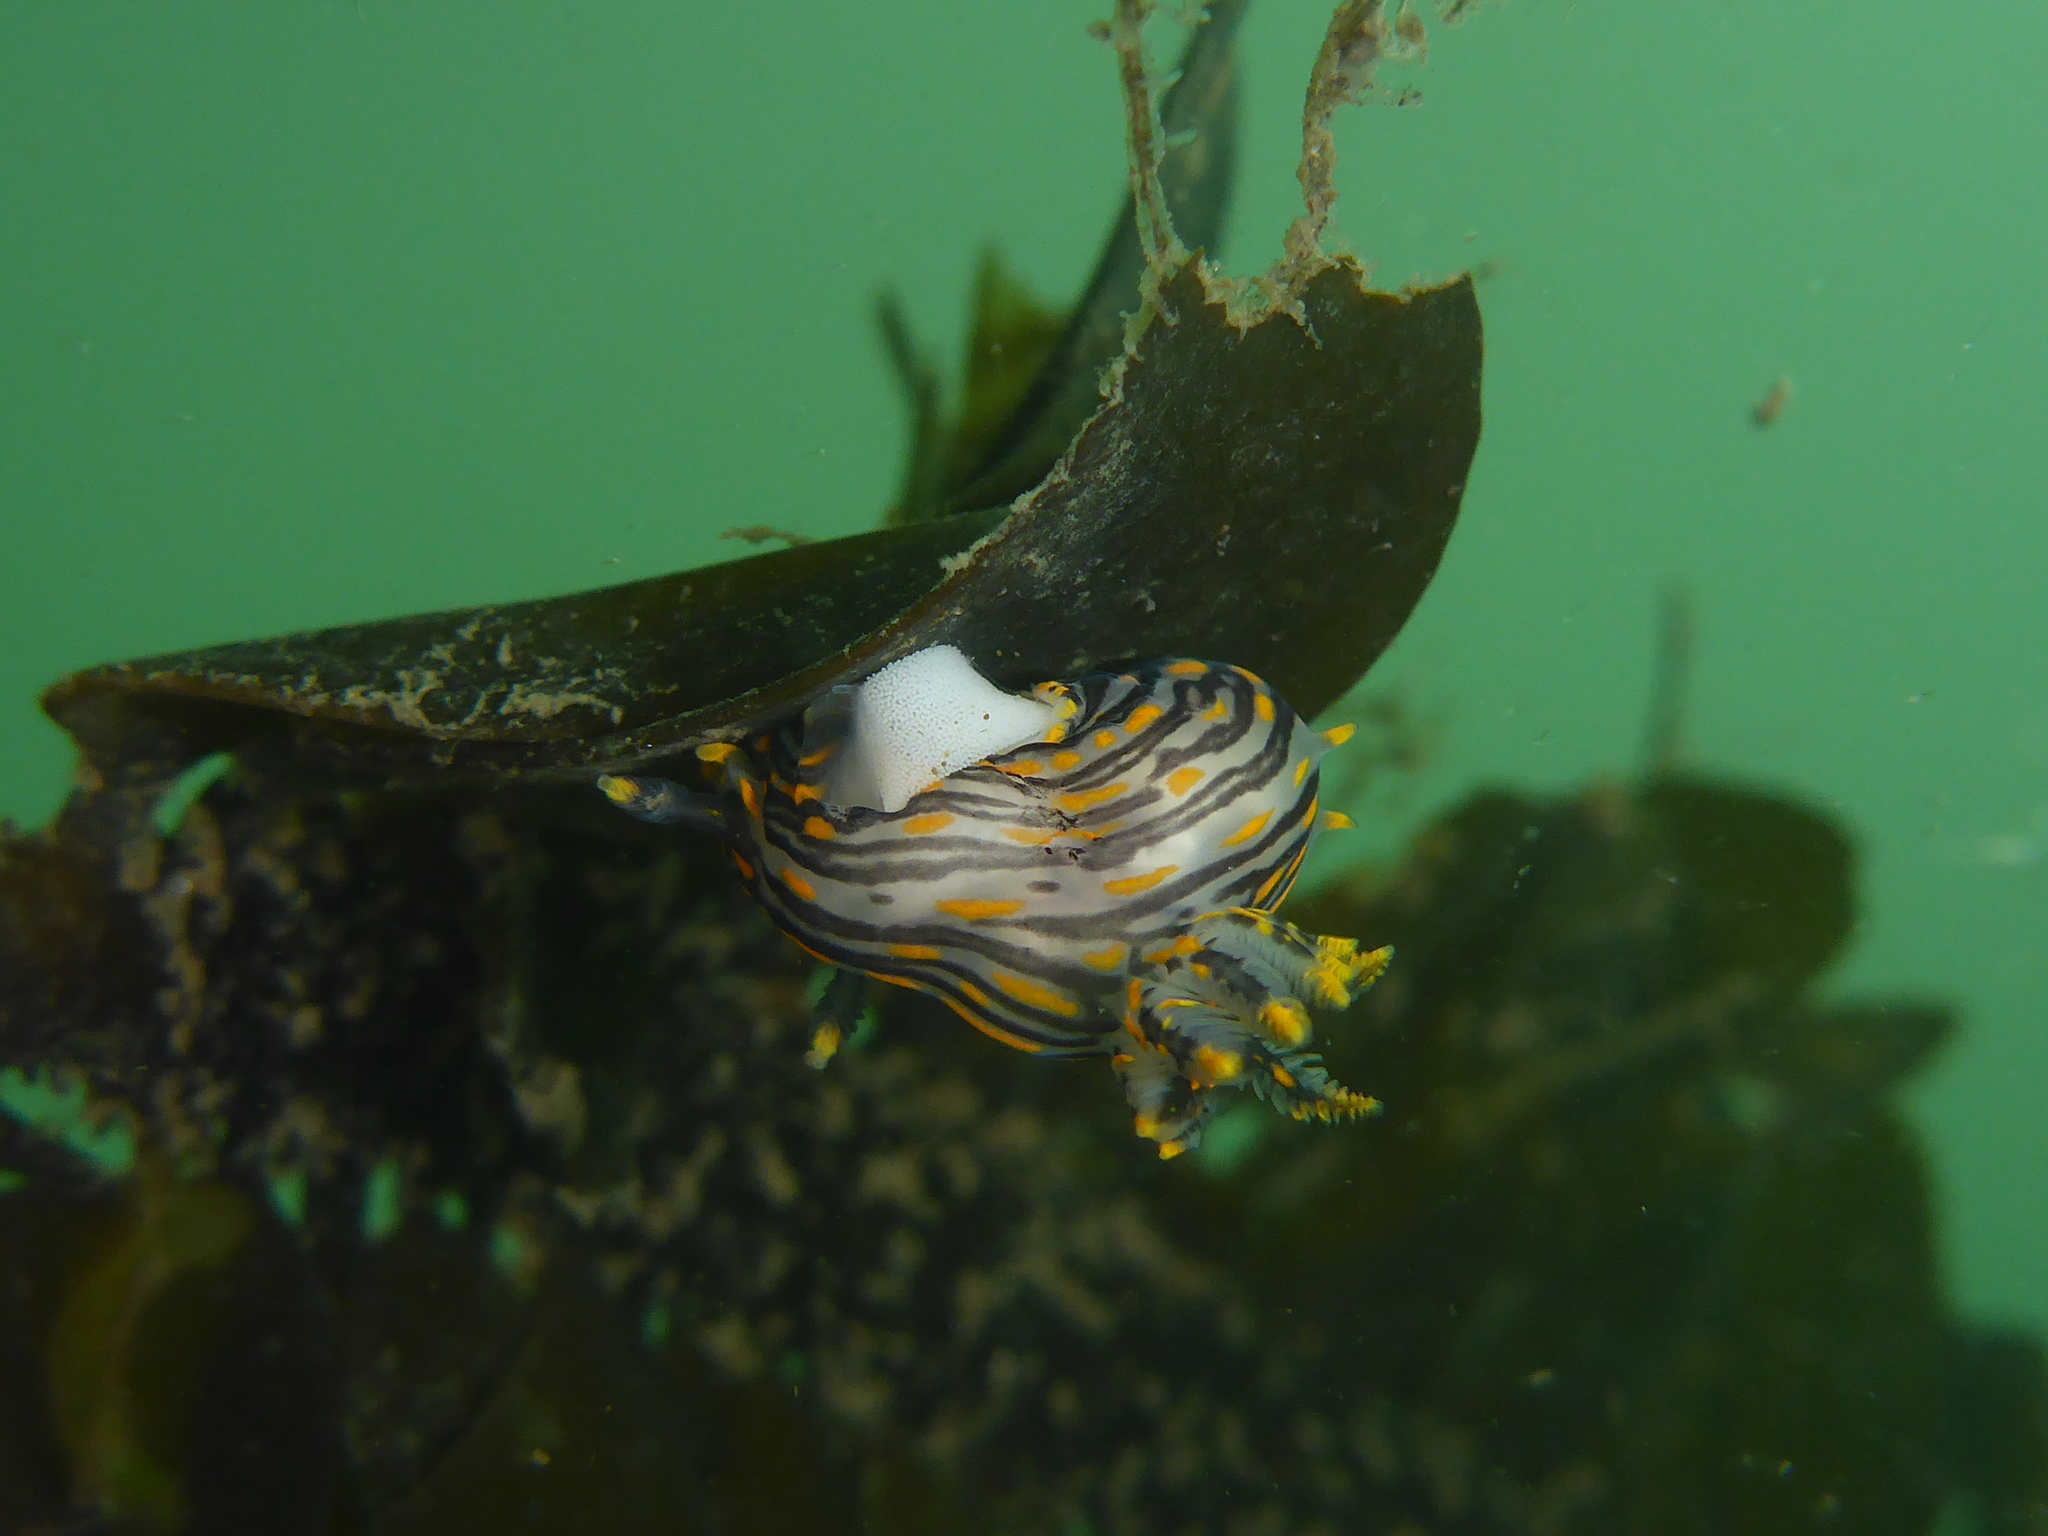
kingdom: Animalia
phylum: Mollusca
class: Gastropoda
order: Nudibranchia
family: Polyceridae
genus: Polycera
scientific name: Polycera atra
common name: Orange-spike polycera
